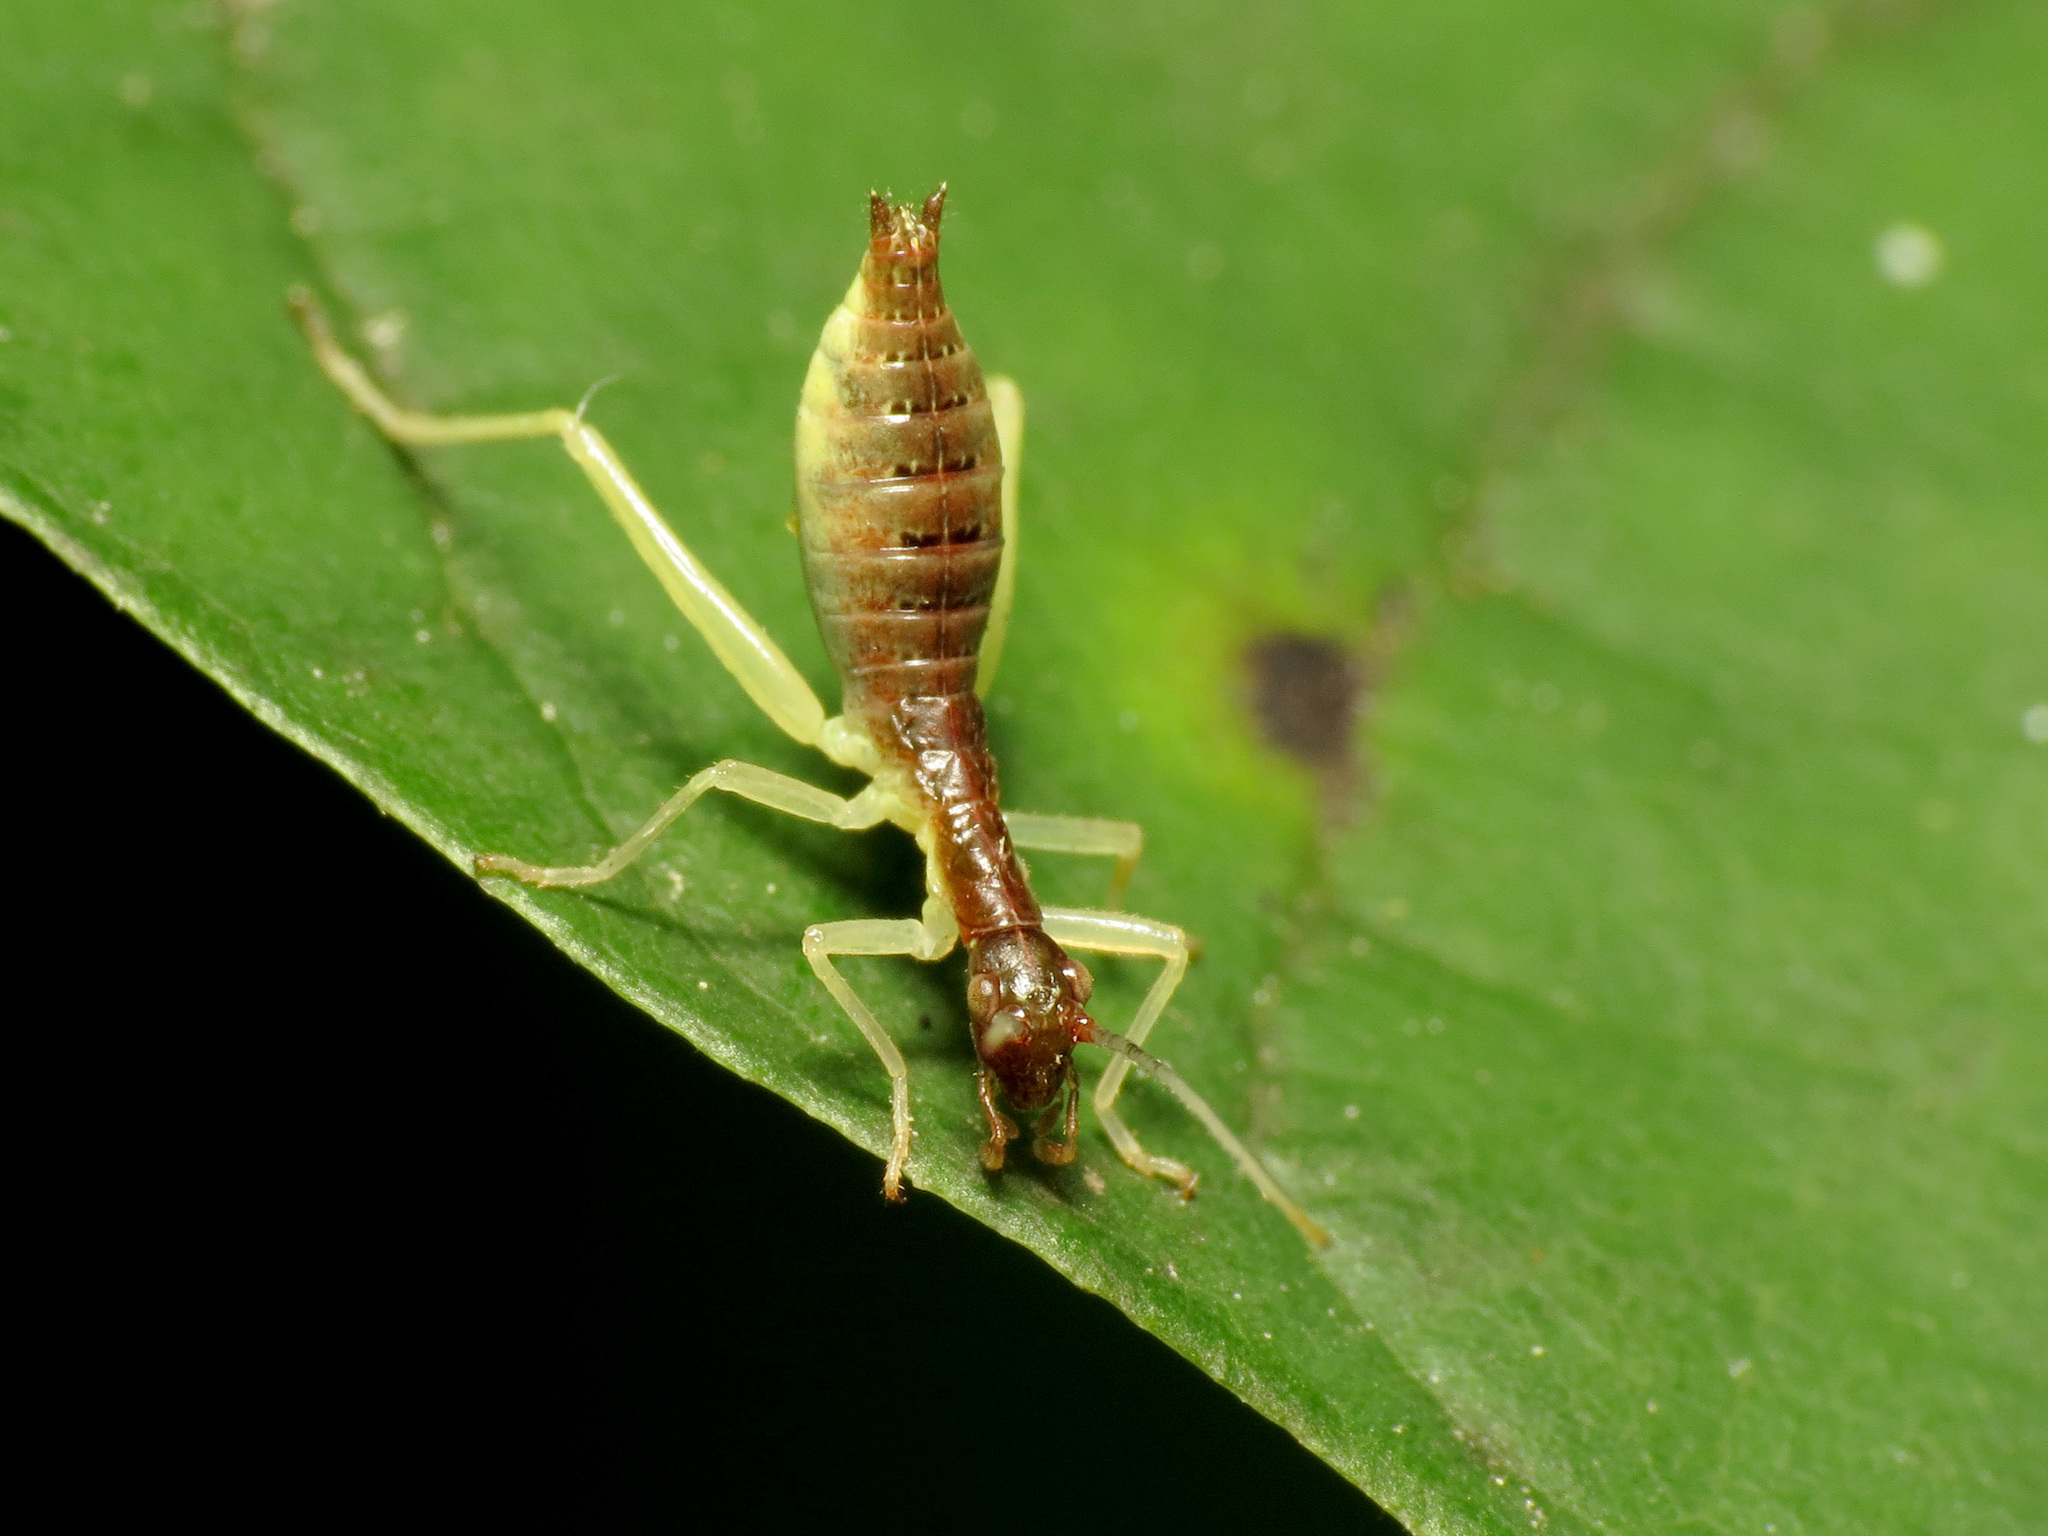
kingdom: Animalia
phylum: Arthropoda
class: Insecta
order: Orthoptera
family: Gryllidae
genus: Neoxabea
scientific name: Neoxabea bipunctata
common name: Two-spotted tree cricket
